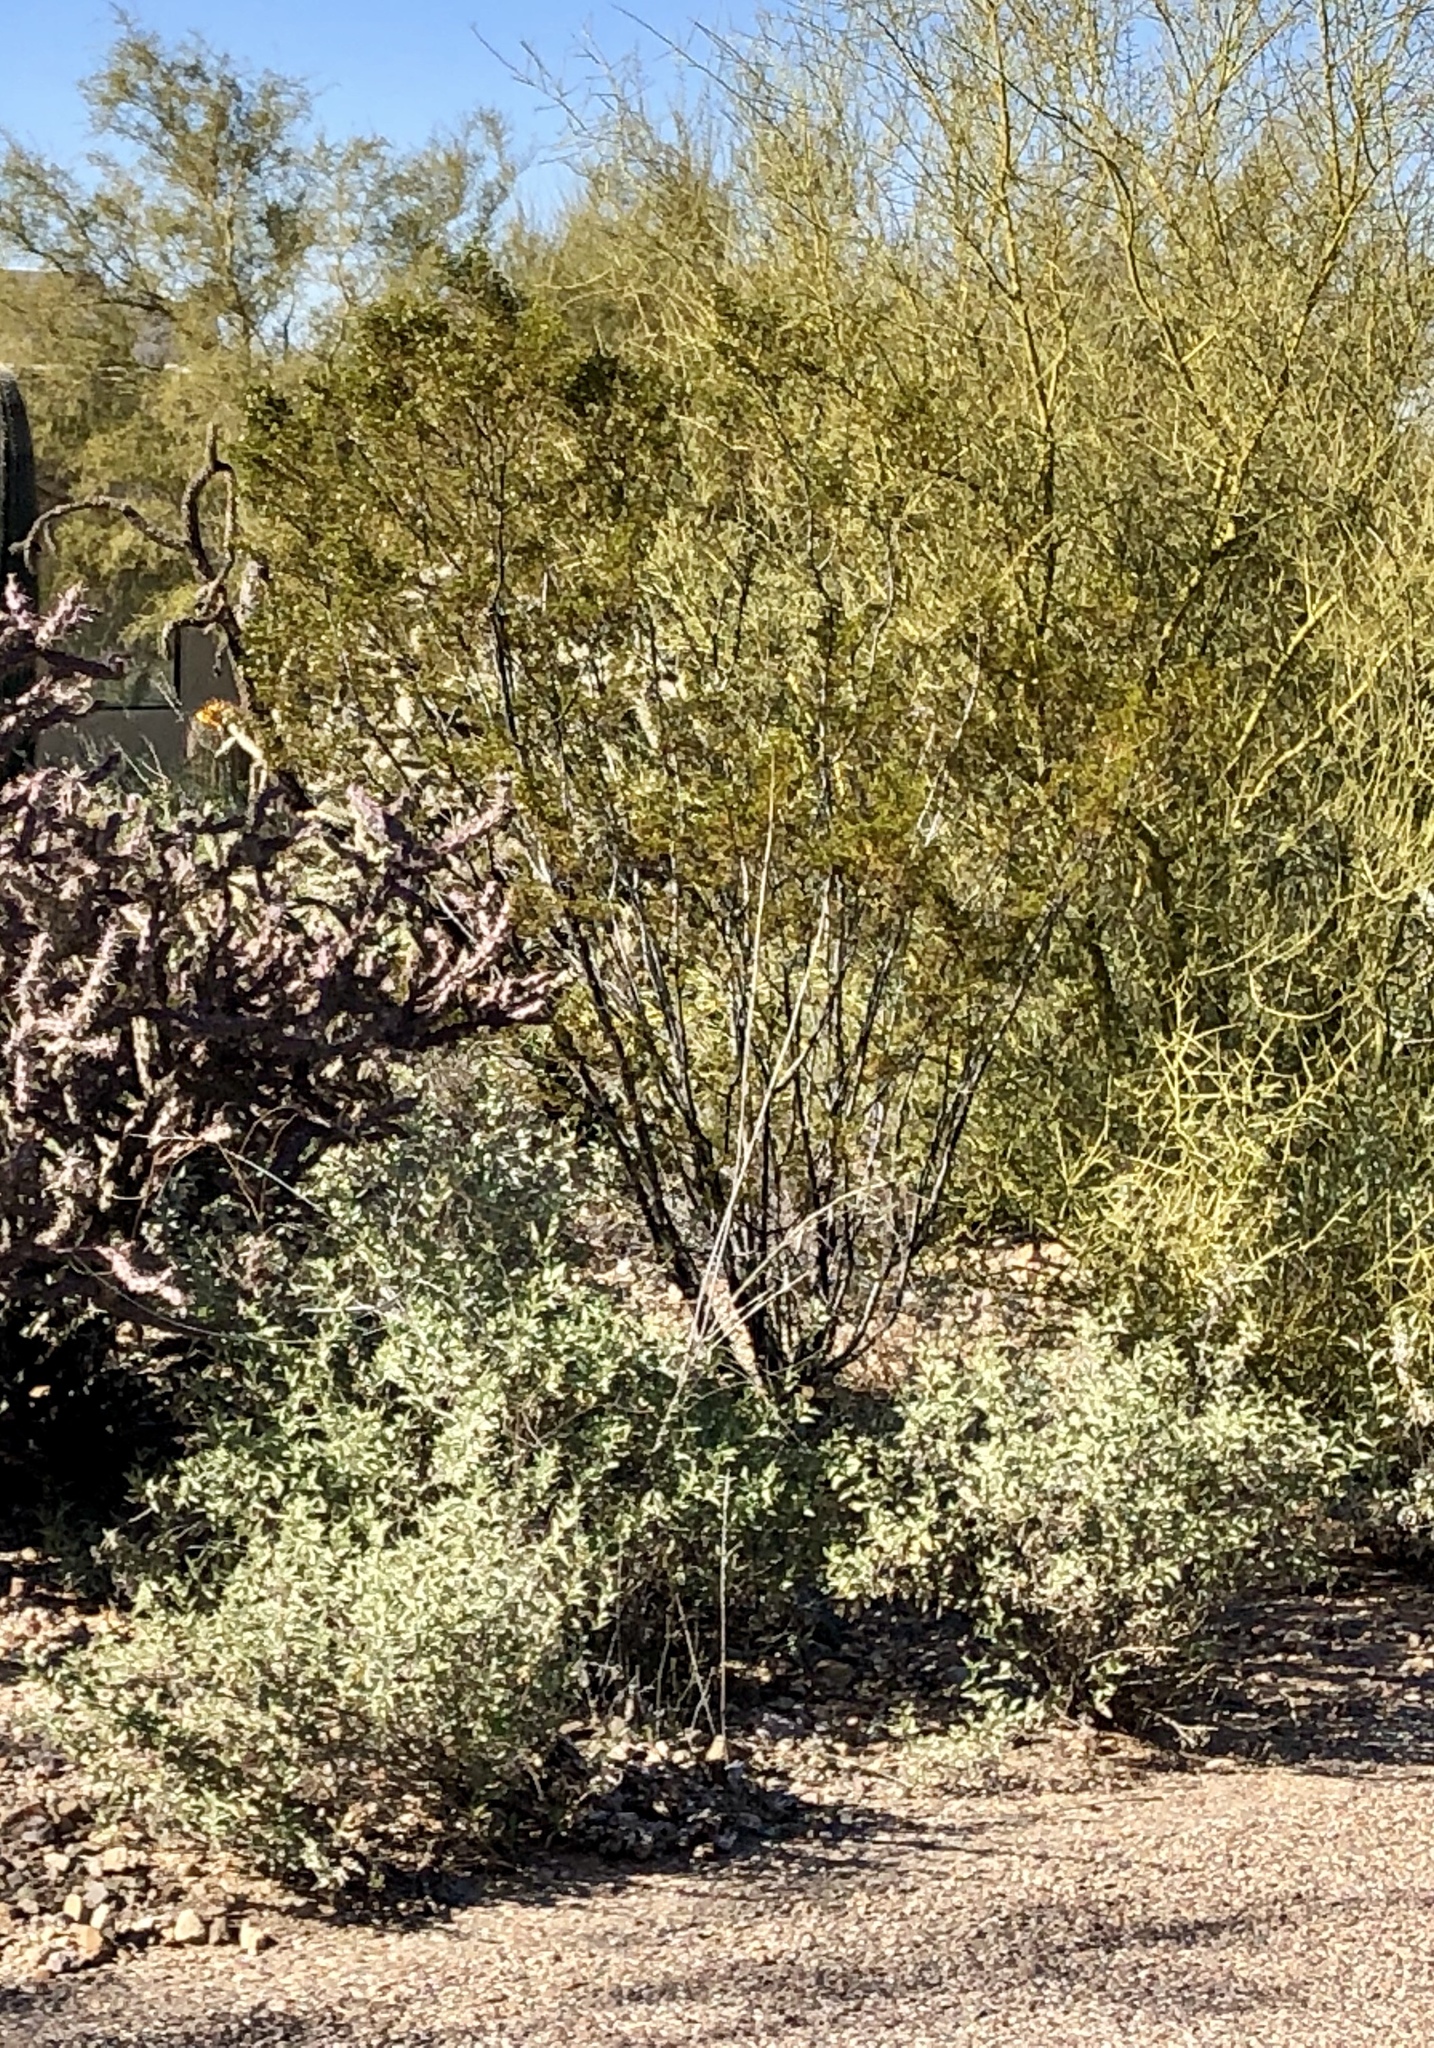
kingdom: Plantae
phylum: Tracheophyta
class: Magnoliopsida
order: Zygophyllales
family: Zygophyllaceae
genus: Larrea
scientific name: Larrea tridentata
